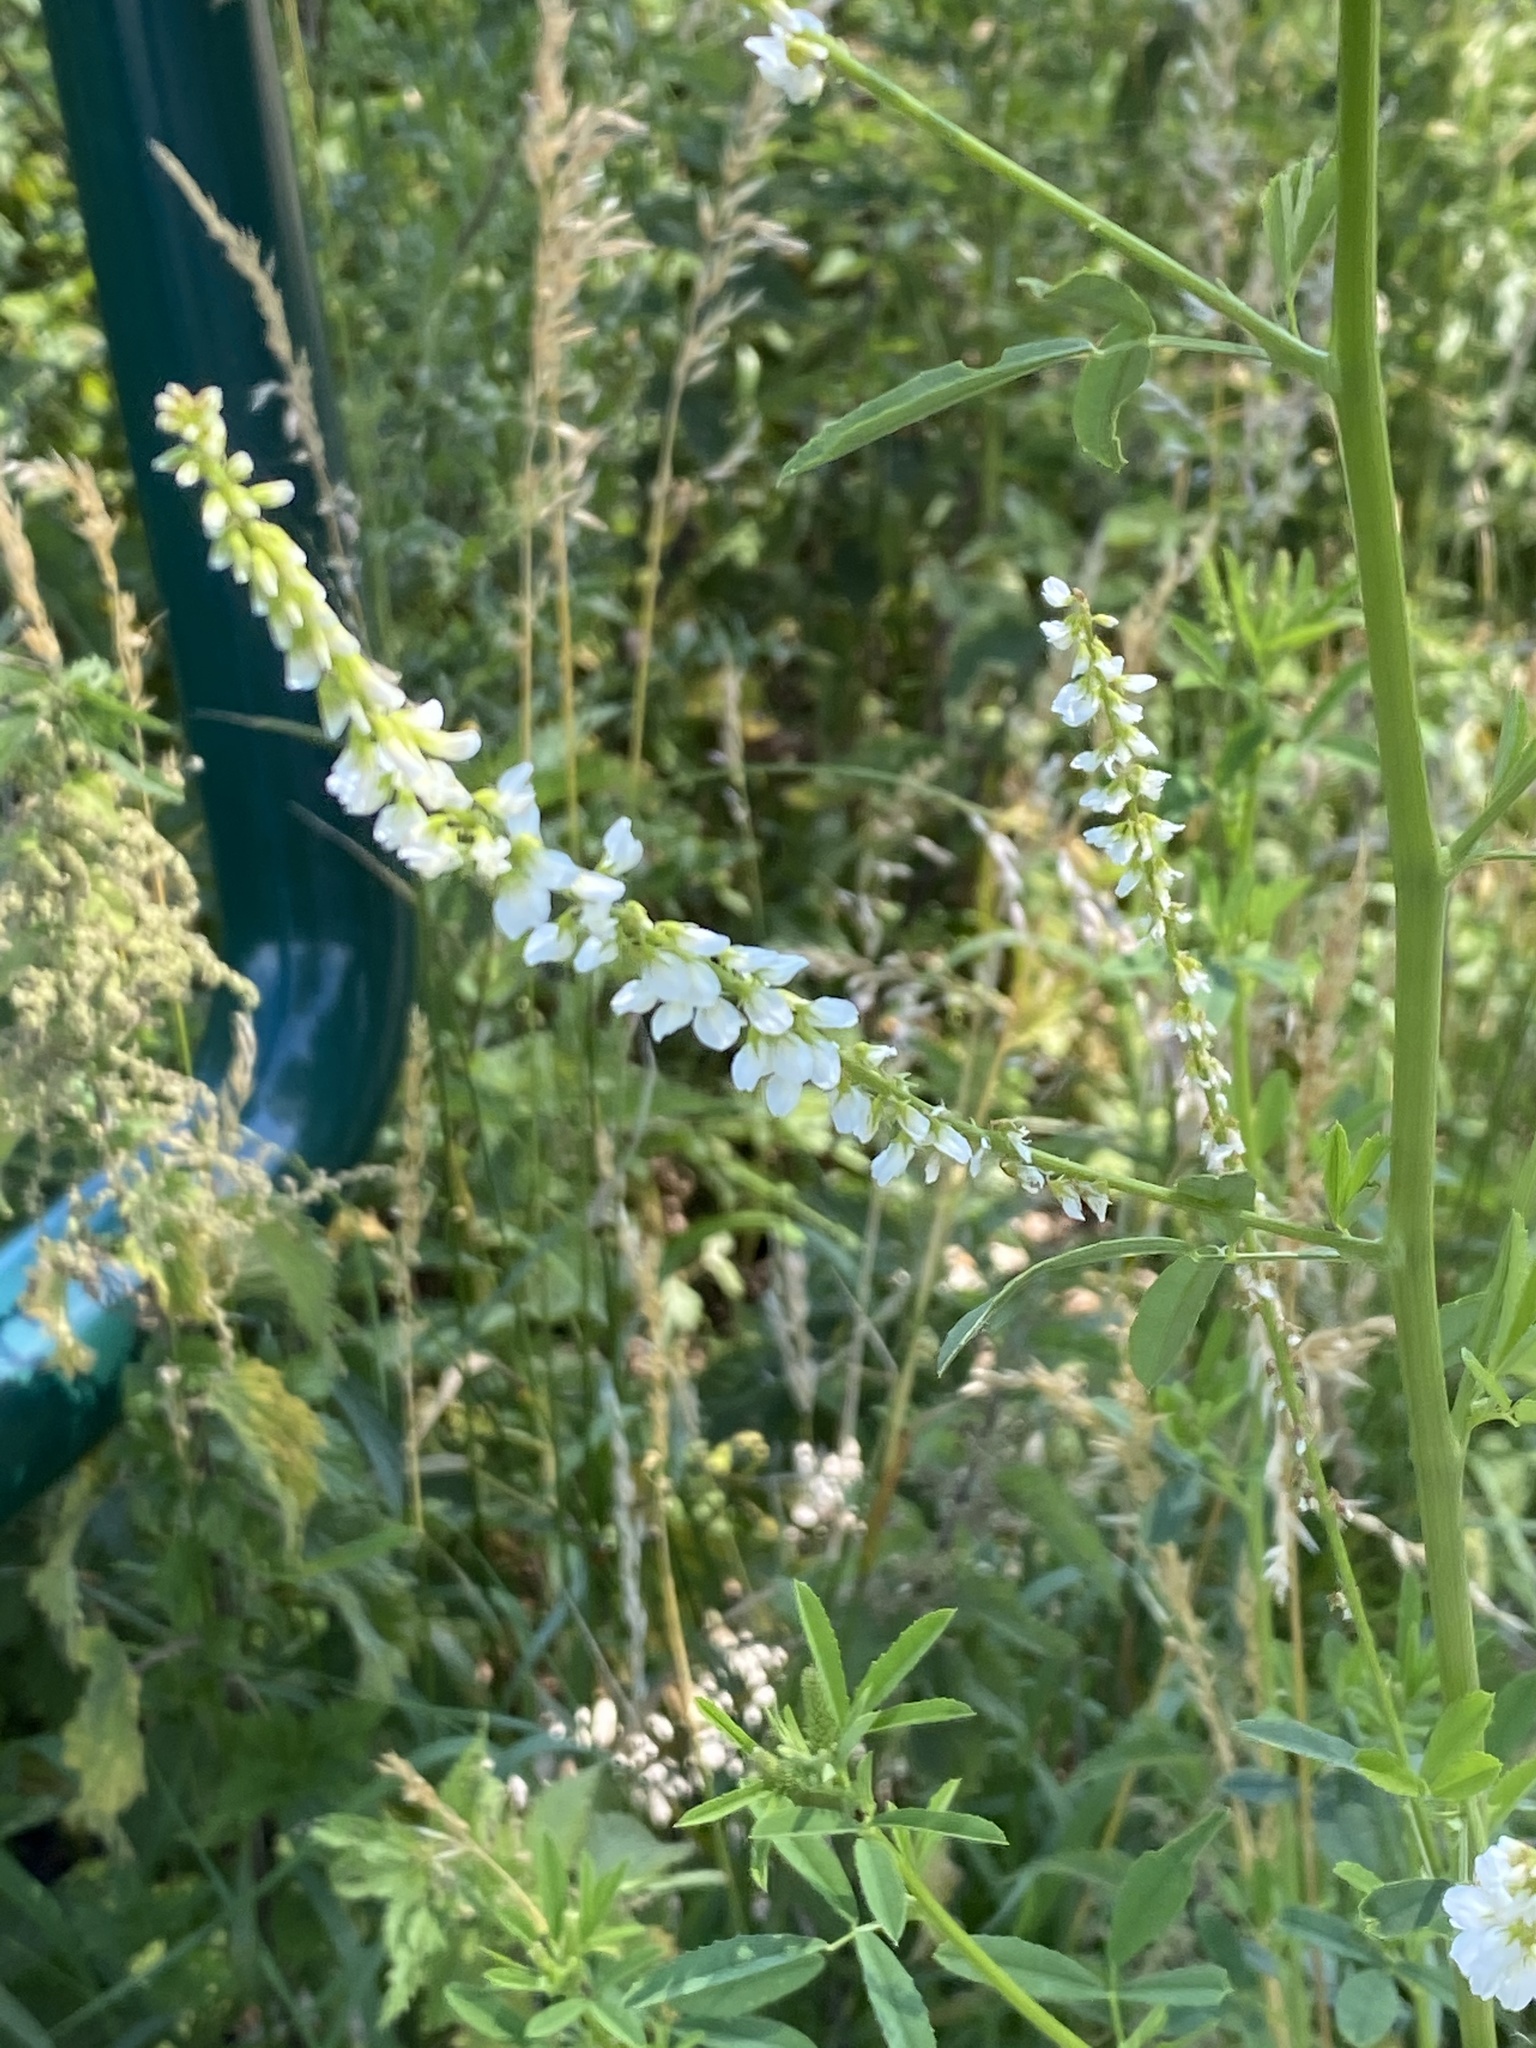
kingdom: Plantae
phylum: Tracheophyta
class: Magnoliopsida
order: Fabales
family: Fabaceae
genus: Melilotus
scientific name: Melilotus albus
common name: White melilot
